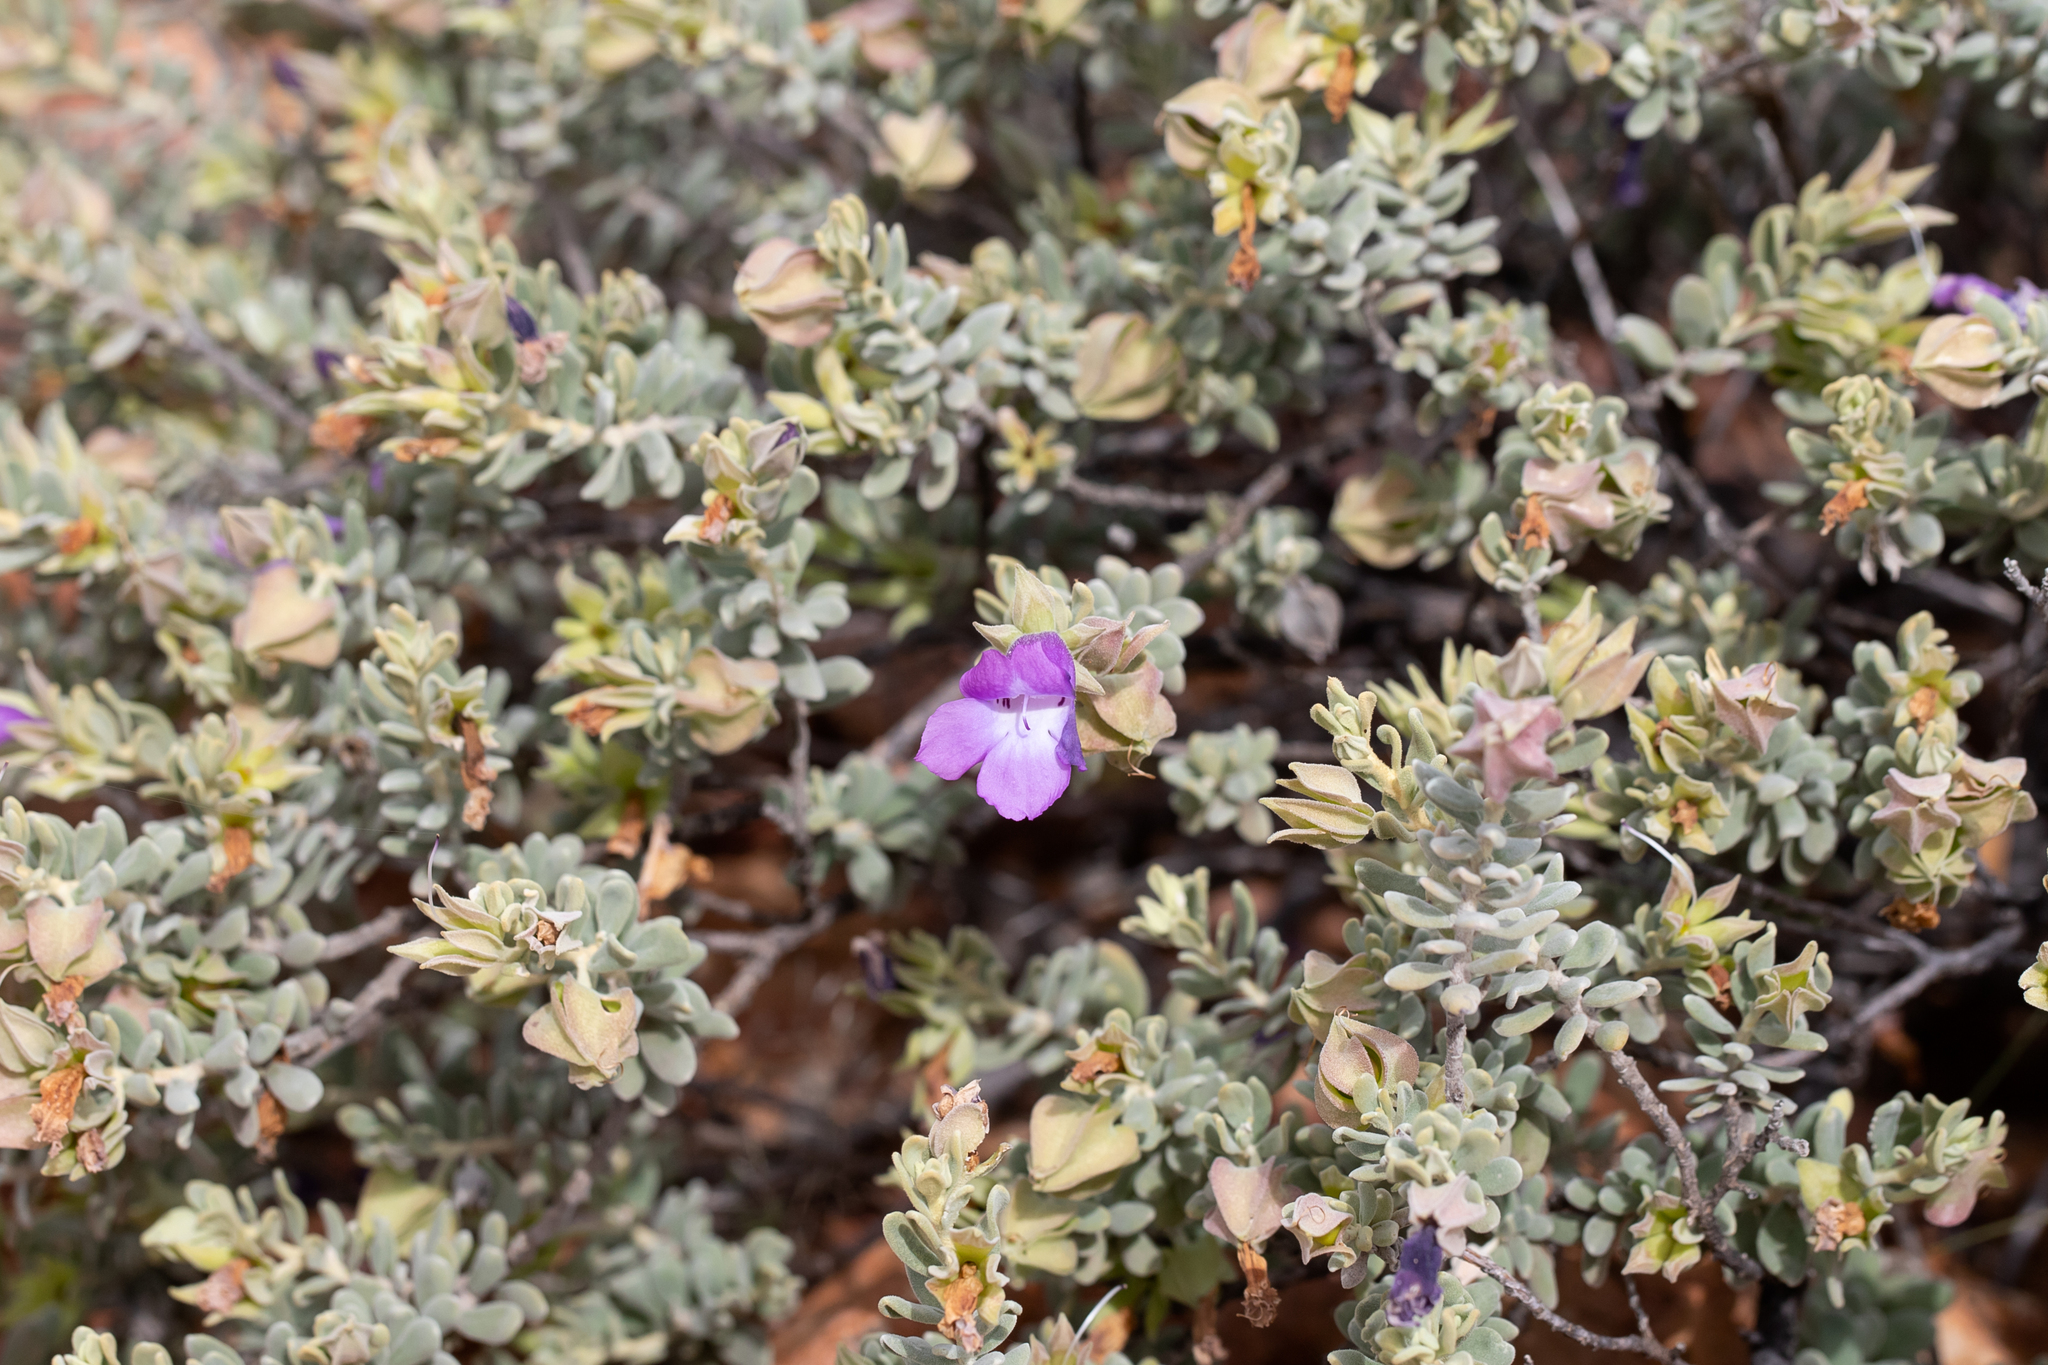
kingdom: Plantae
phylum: Tracheophyta
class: Magnoliopsida
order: Lamiales
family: Scrophulariaceae
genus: Eremophila
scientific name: Eremophila cordatisepala
